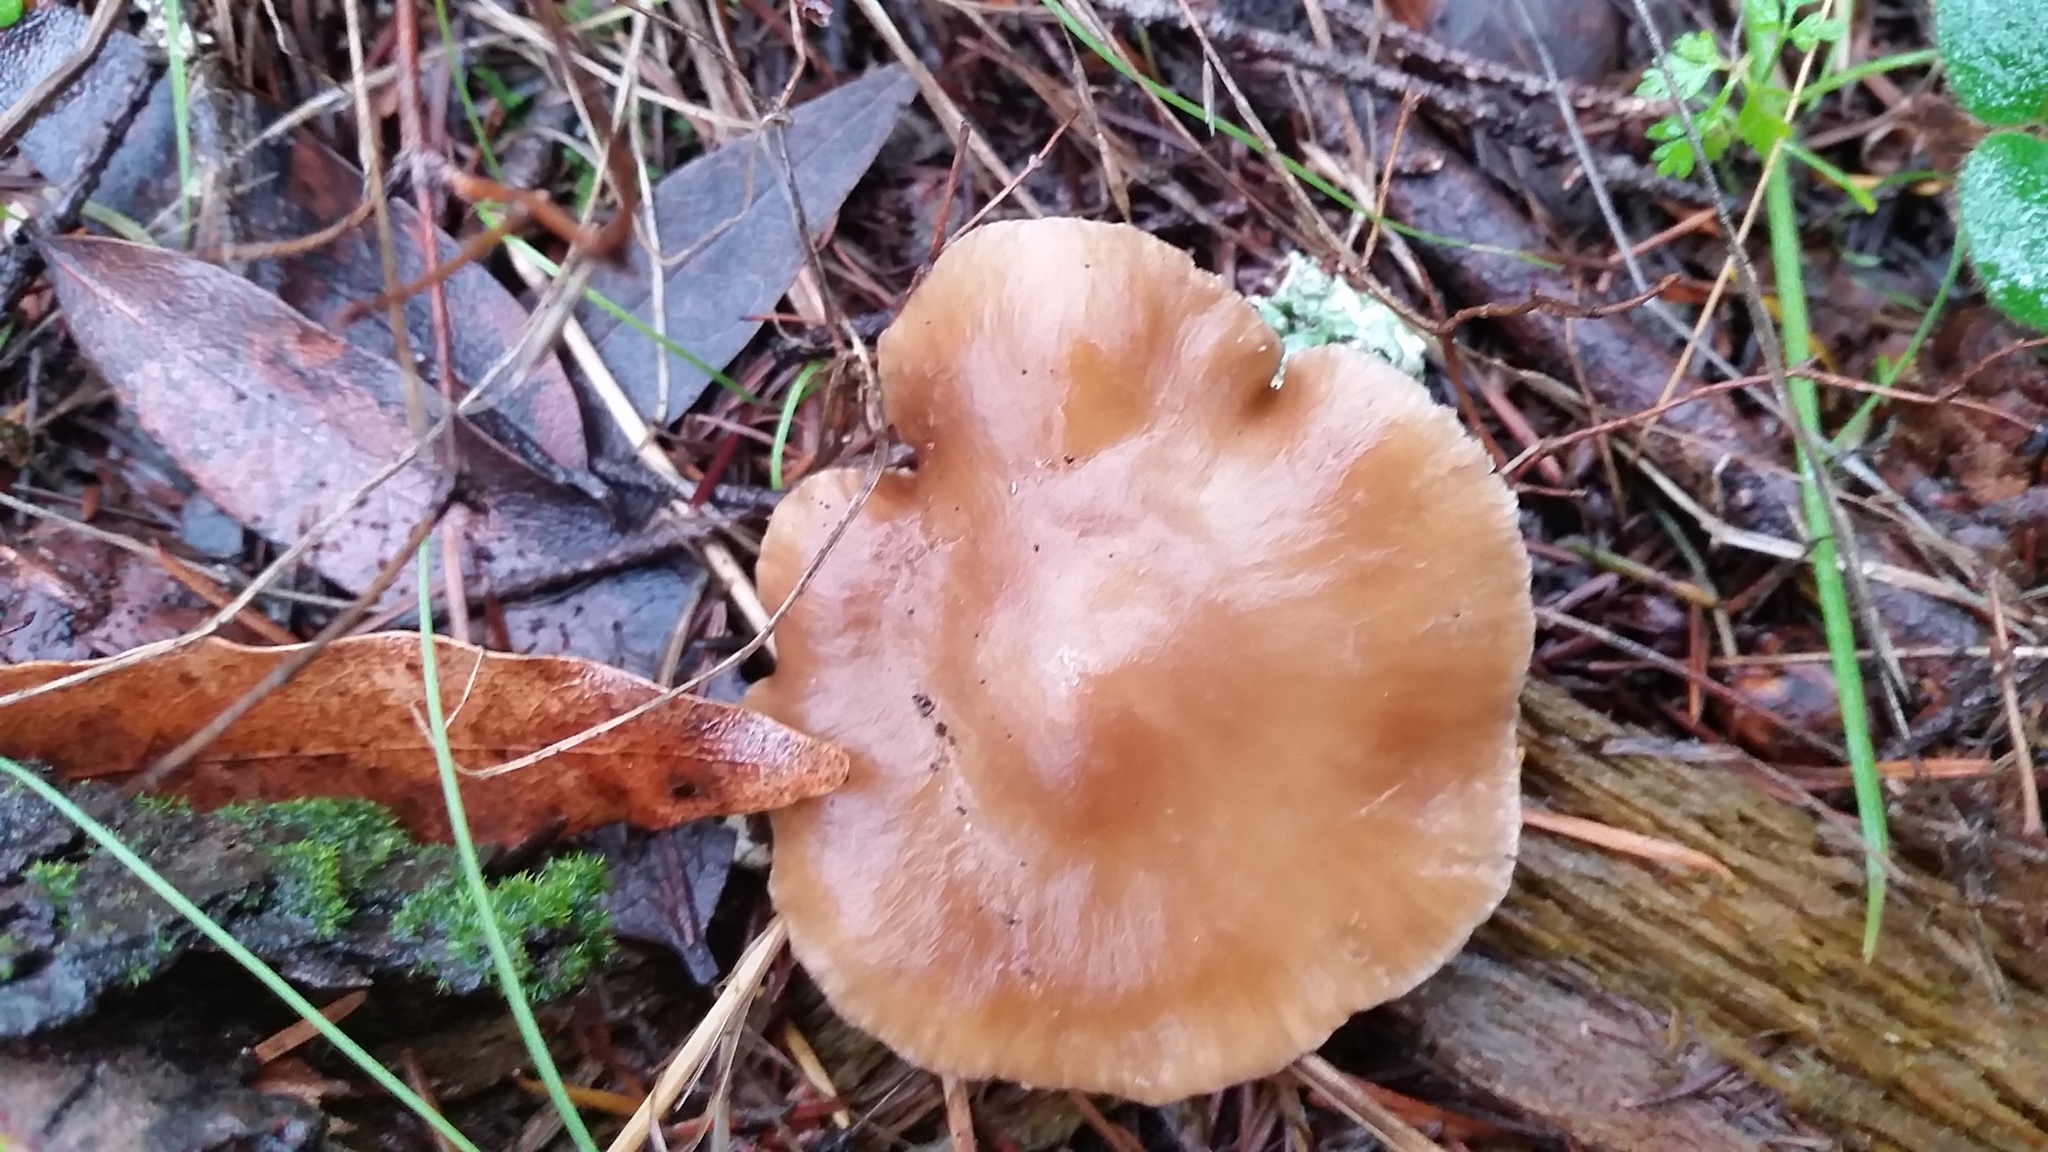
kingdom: Fungi
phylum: Basidiomycota
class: Agaricomycetes
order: Agaricales
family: Omphalotaceae
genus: Rhodocollybia
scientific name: Rhodocollybia butyracea
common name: Butter cap
